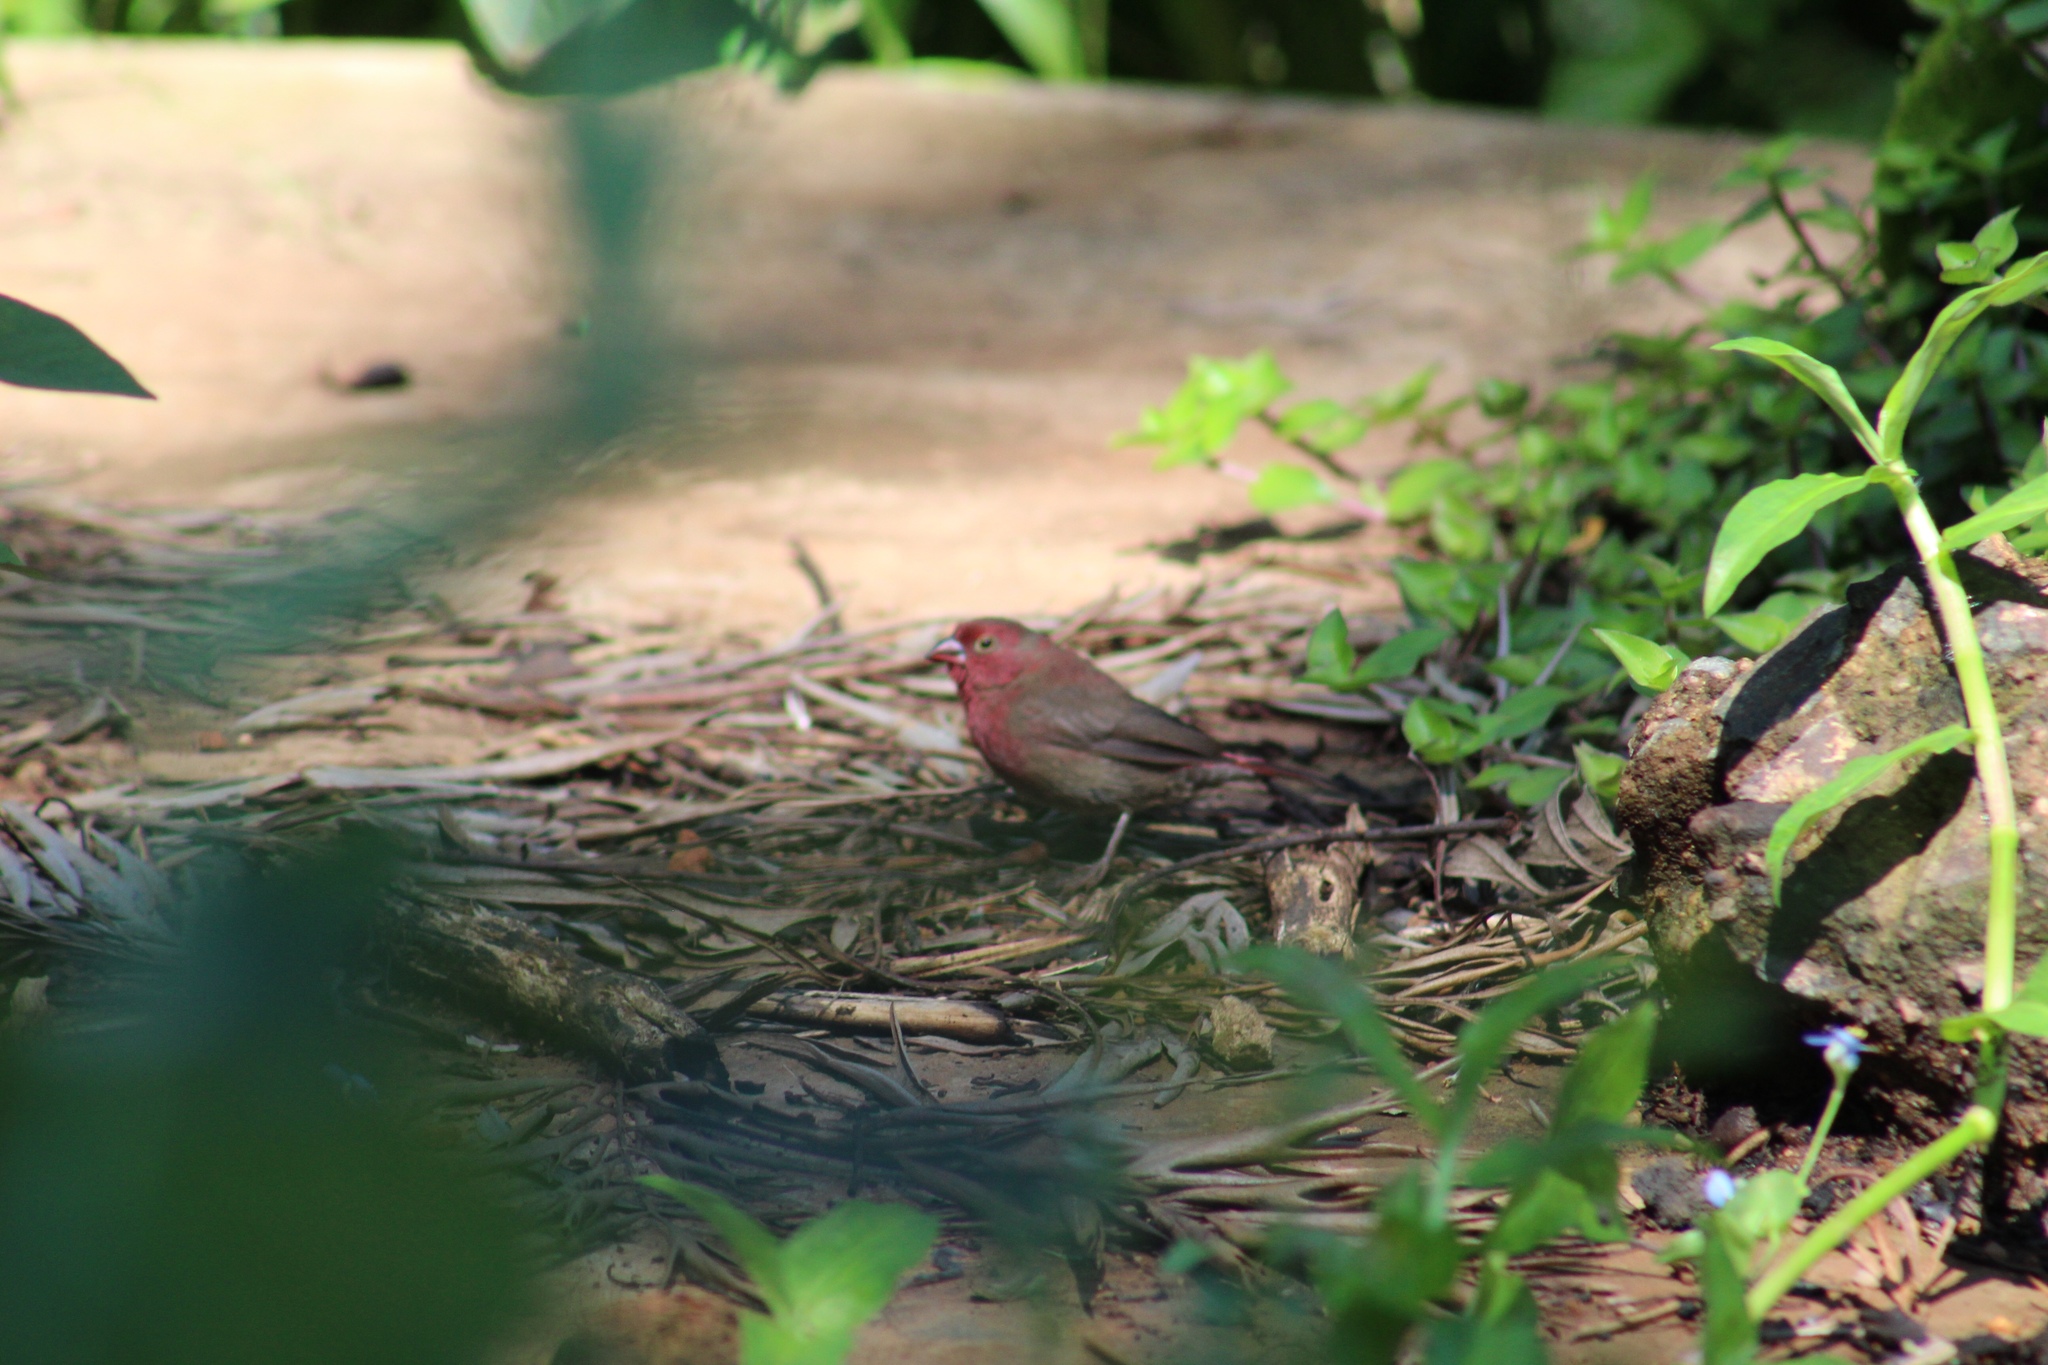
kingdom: Animalia
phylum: Chordata
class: Aves
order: Passeriformes
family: Estrildidae
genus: Lagonosticta
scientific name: Lagonosticta senegala
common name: Red-billed firefinch
